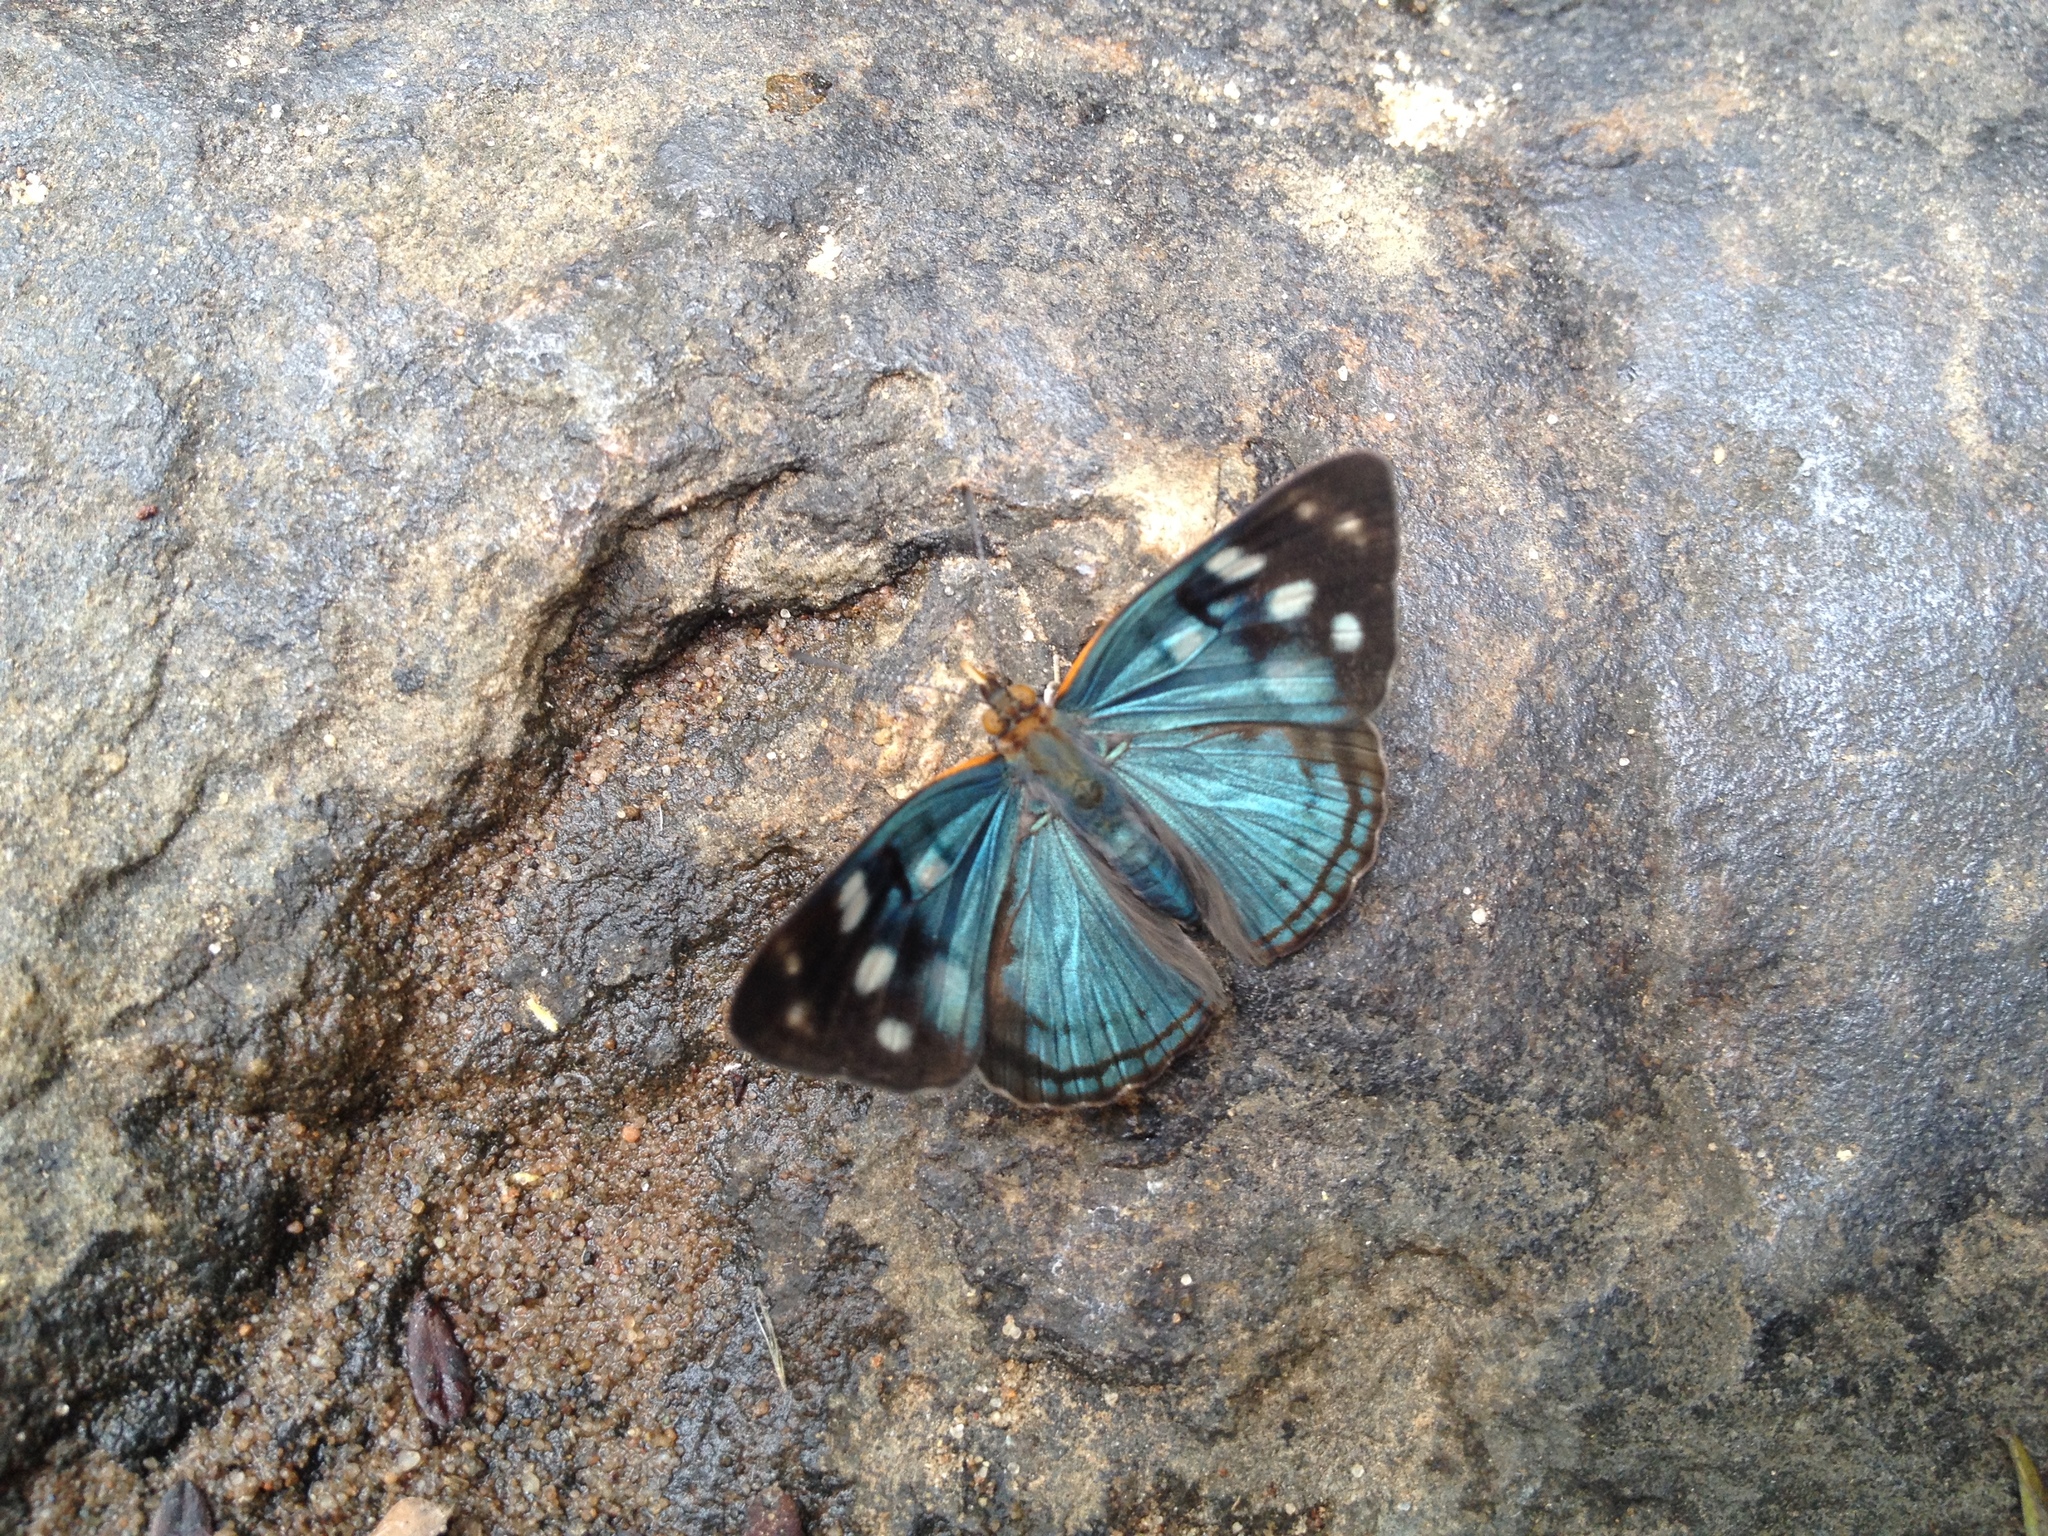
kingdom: Animalia
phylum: Arthropoda
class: Insecta
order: Lepidoptera
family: Nymphalidae
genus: Dynamine
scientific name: Dynamine tithia
